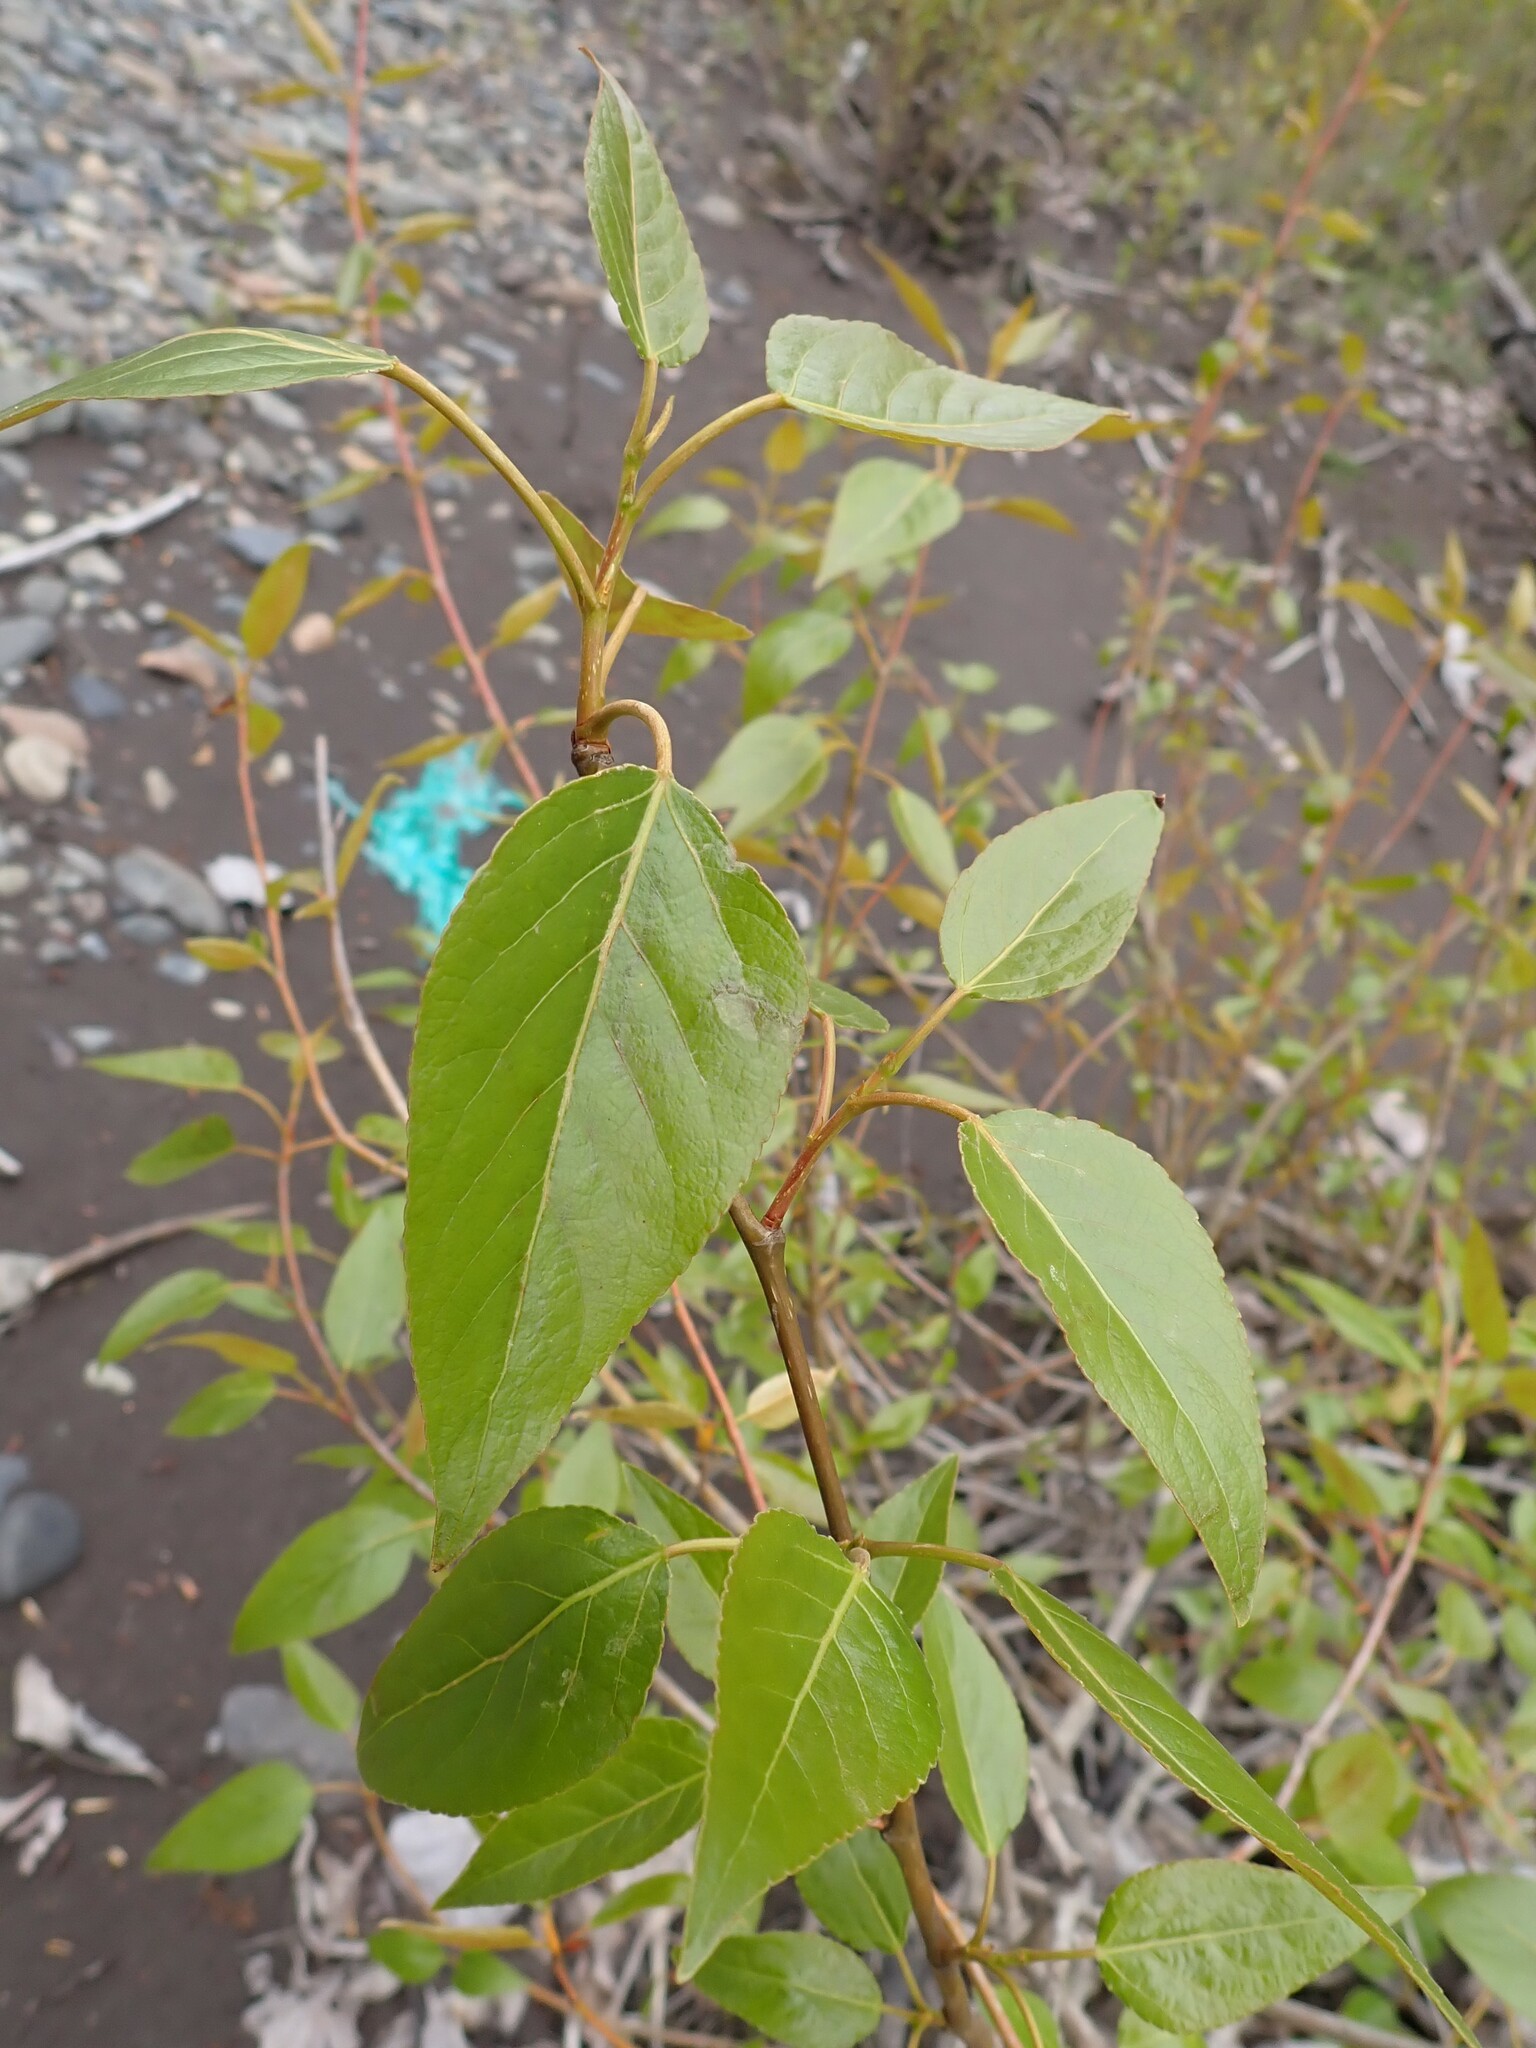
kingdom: Plantae
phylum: Tracheophyta
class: Magnoliopsida
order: Malpighiales
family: Salicaceae
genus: Populus
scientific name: Populus trichocarpa
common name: Black cottonwood
